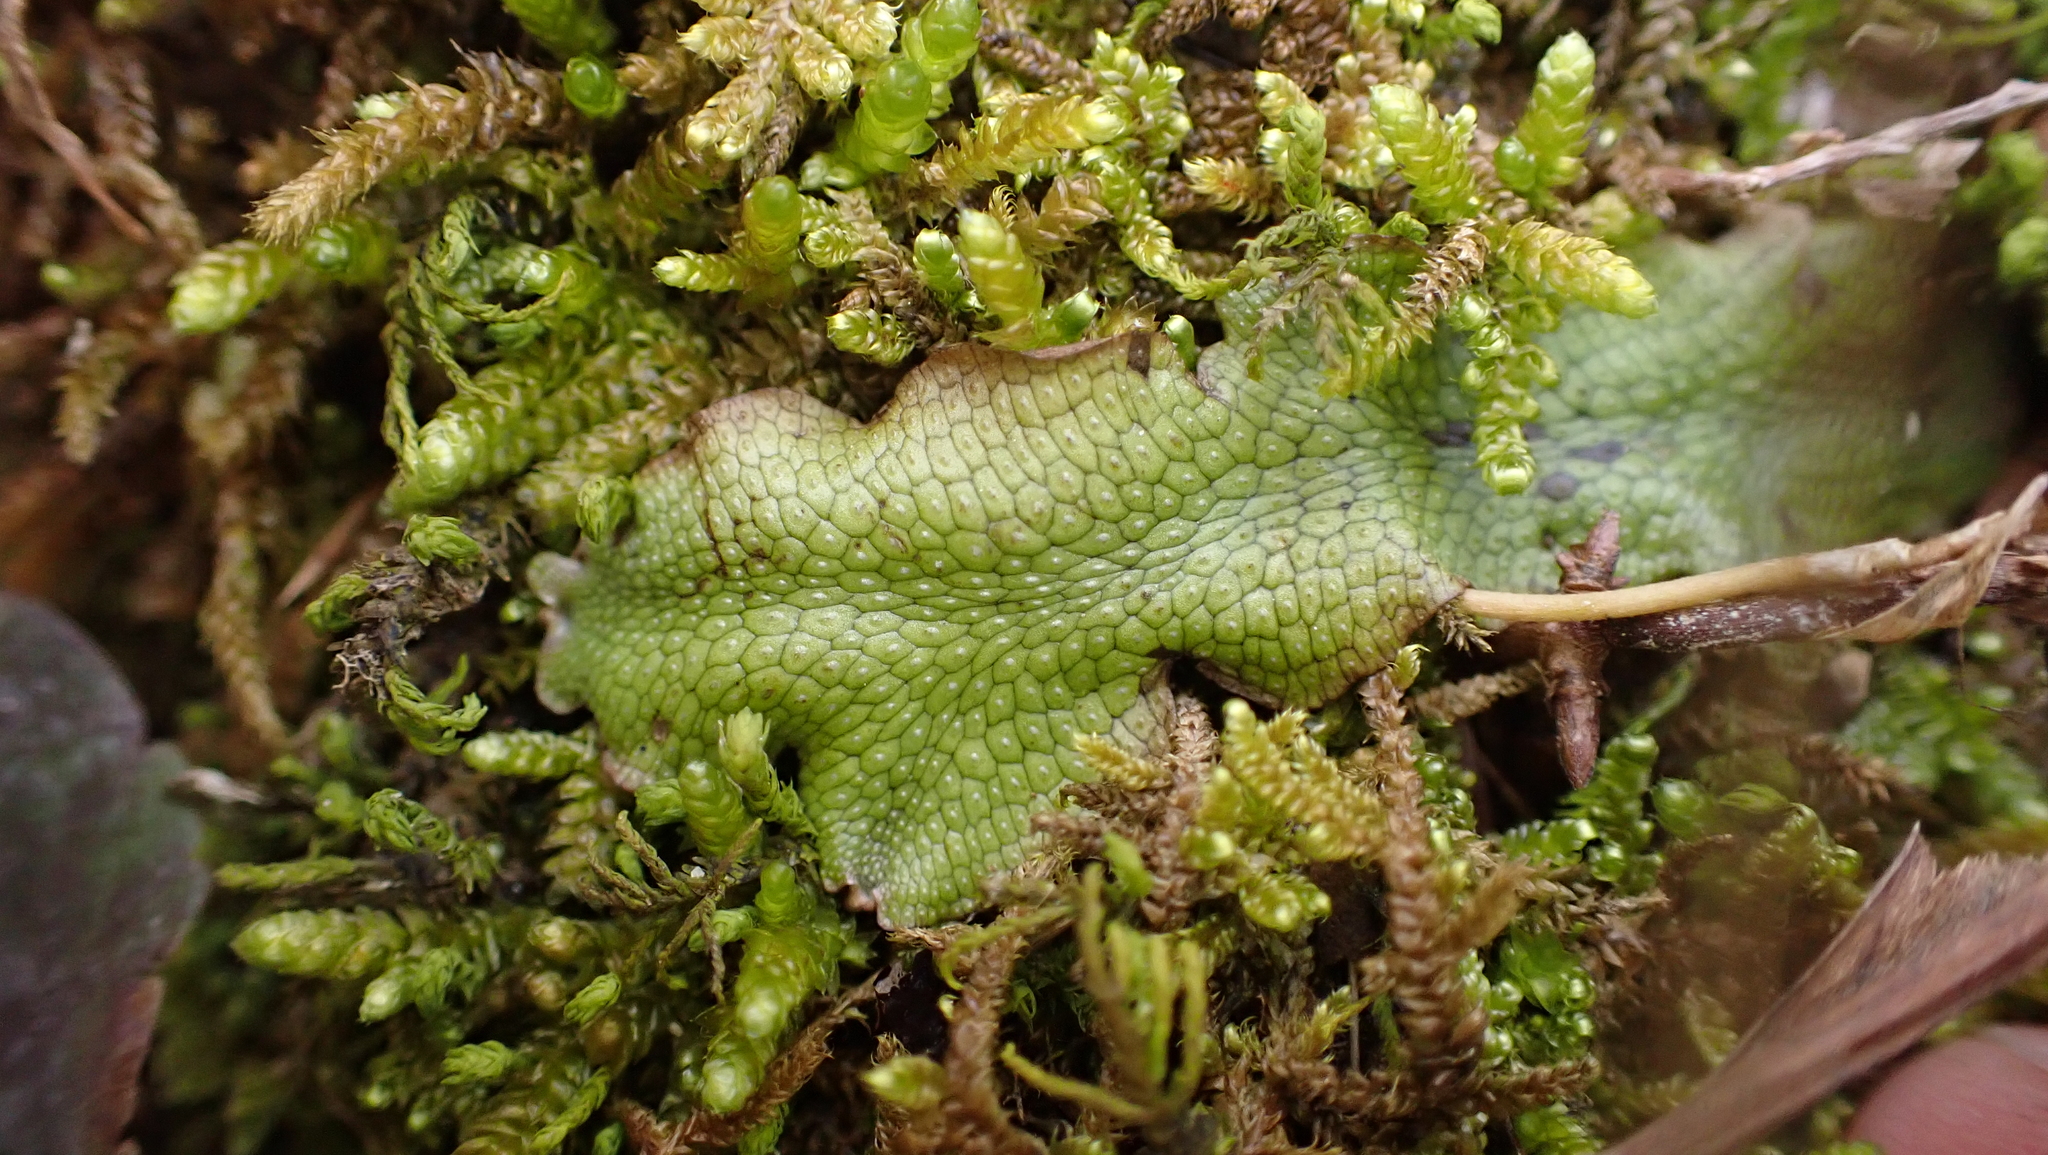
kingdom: Plantae
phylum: Marchantiophyta
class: Marchantiopsida
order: Marchantiales
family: Conocephalaceae
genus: Conocephalum
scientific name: Conocephalum salebrosum
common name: Cat-tongue liverwort
